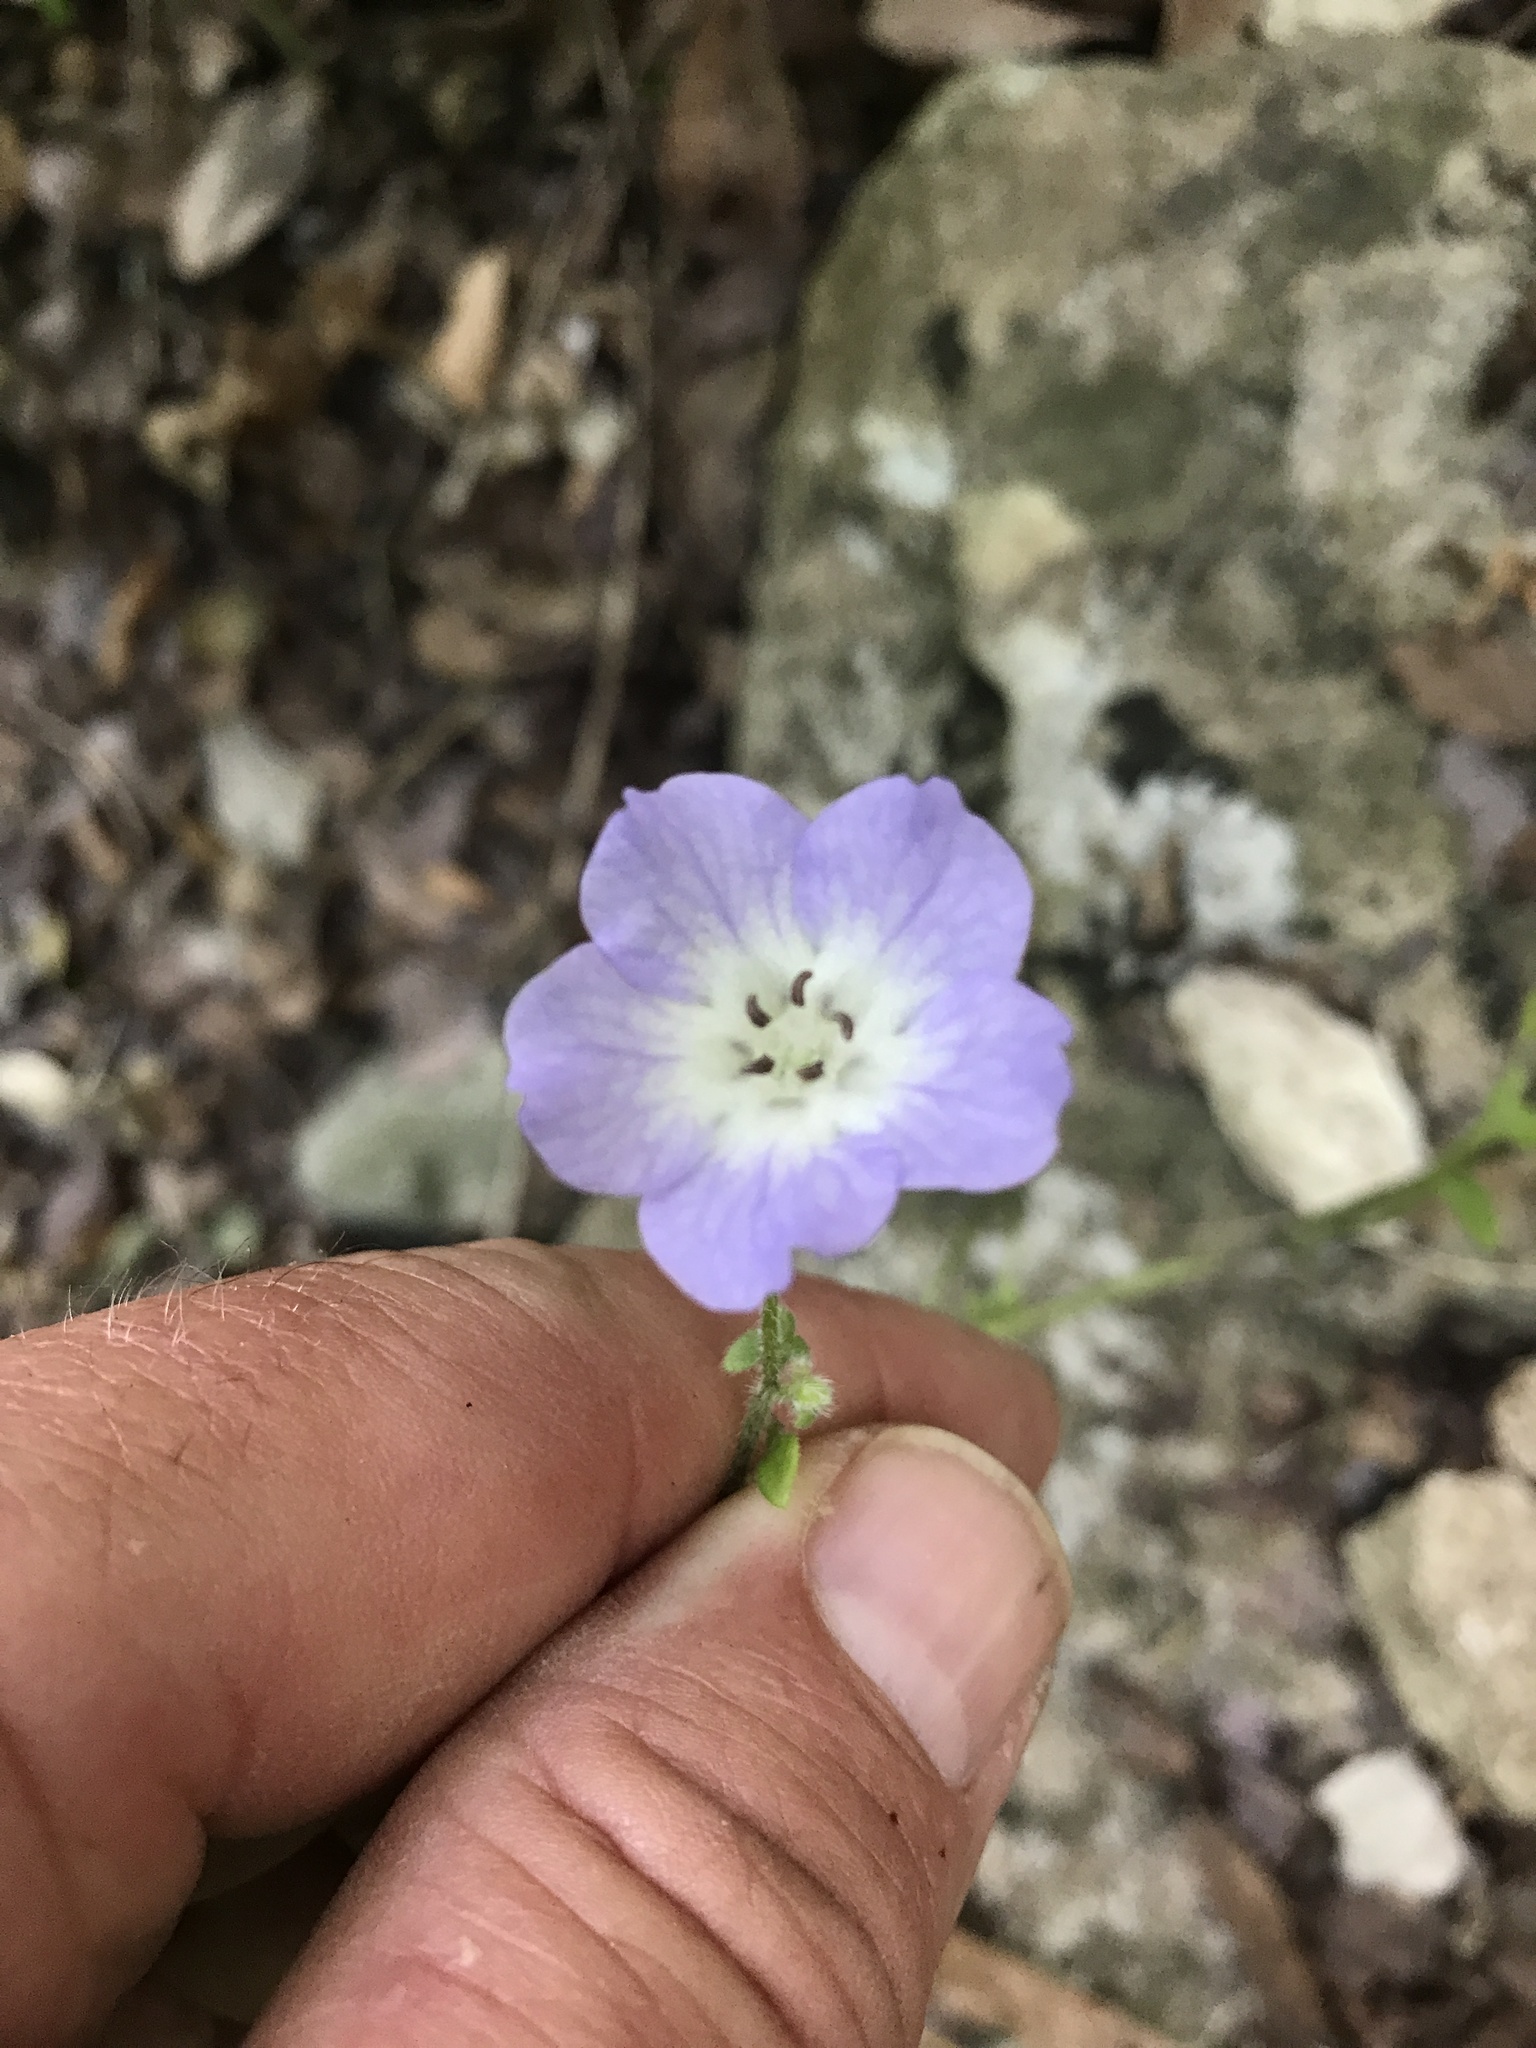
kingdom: Plantae
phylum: Tracheophyta
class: Magnoliopsida
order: Boraginales
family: Hydrophyllaceae
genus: Nemophila
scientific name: Nemophila phacelioides
